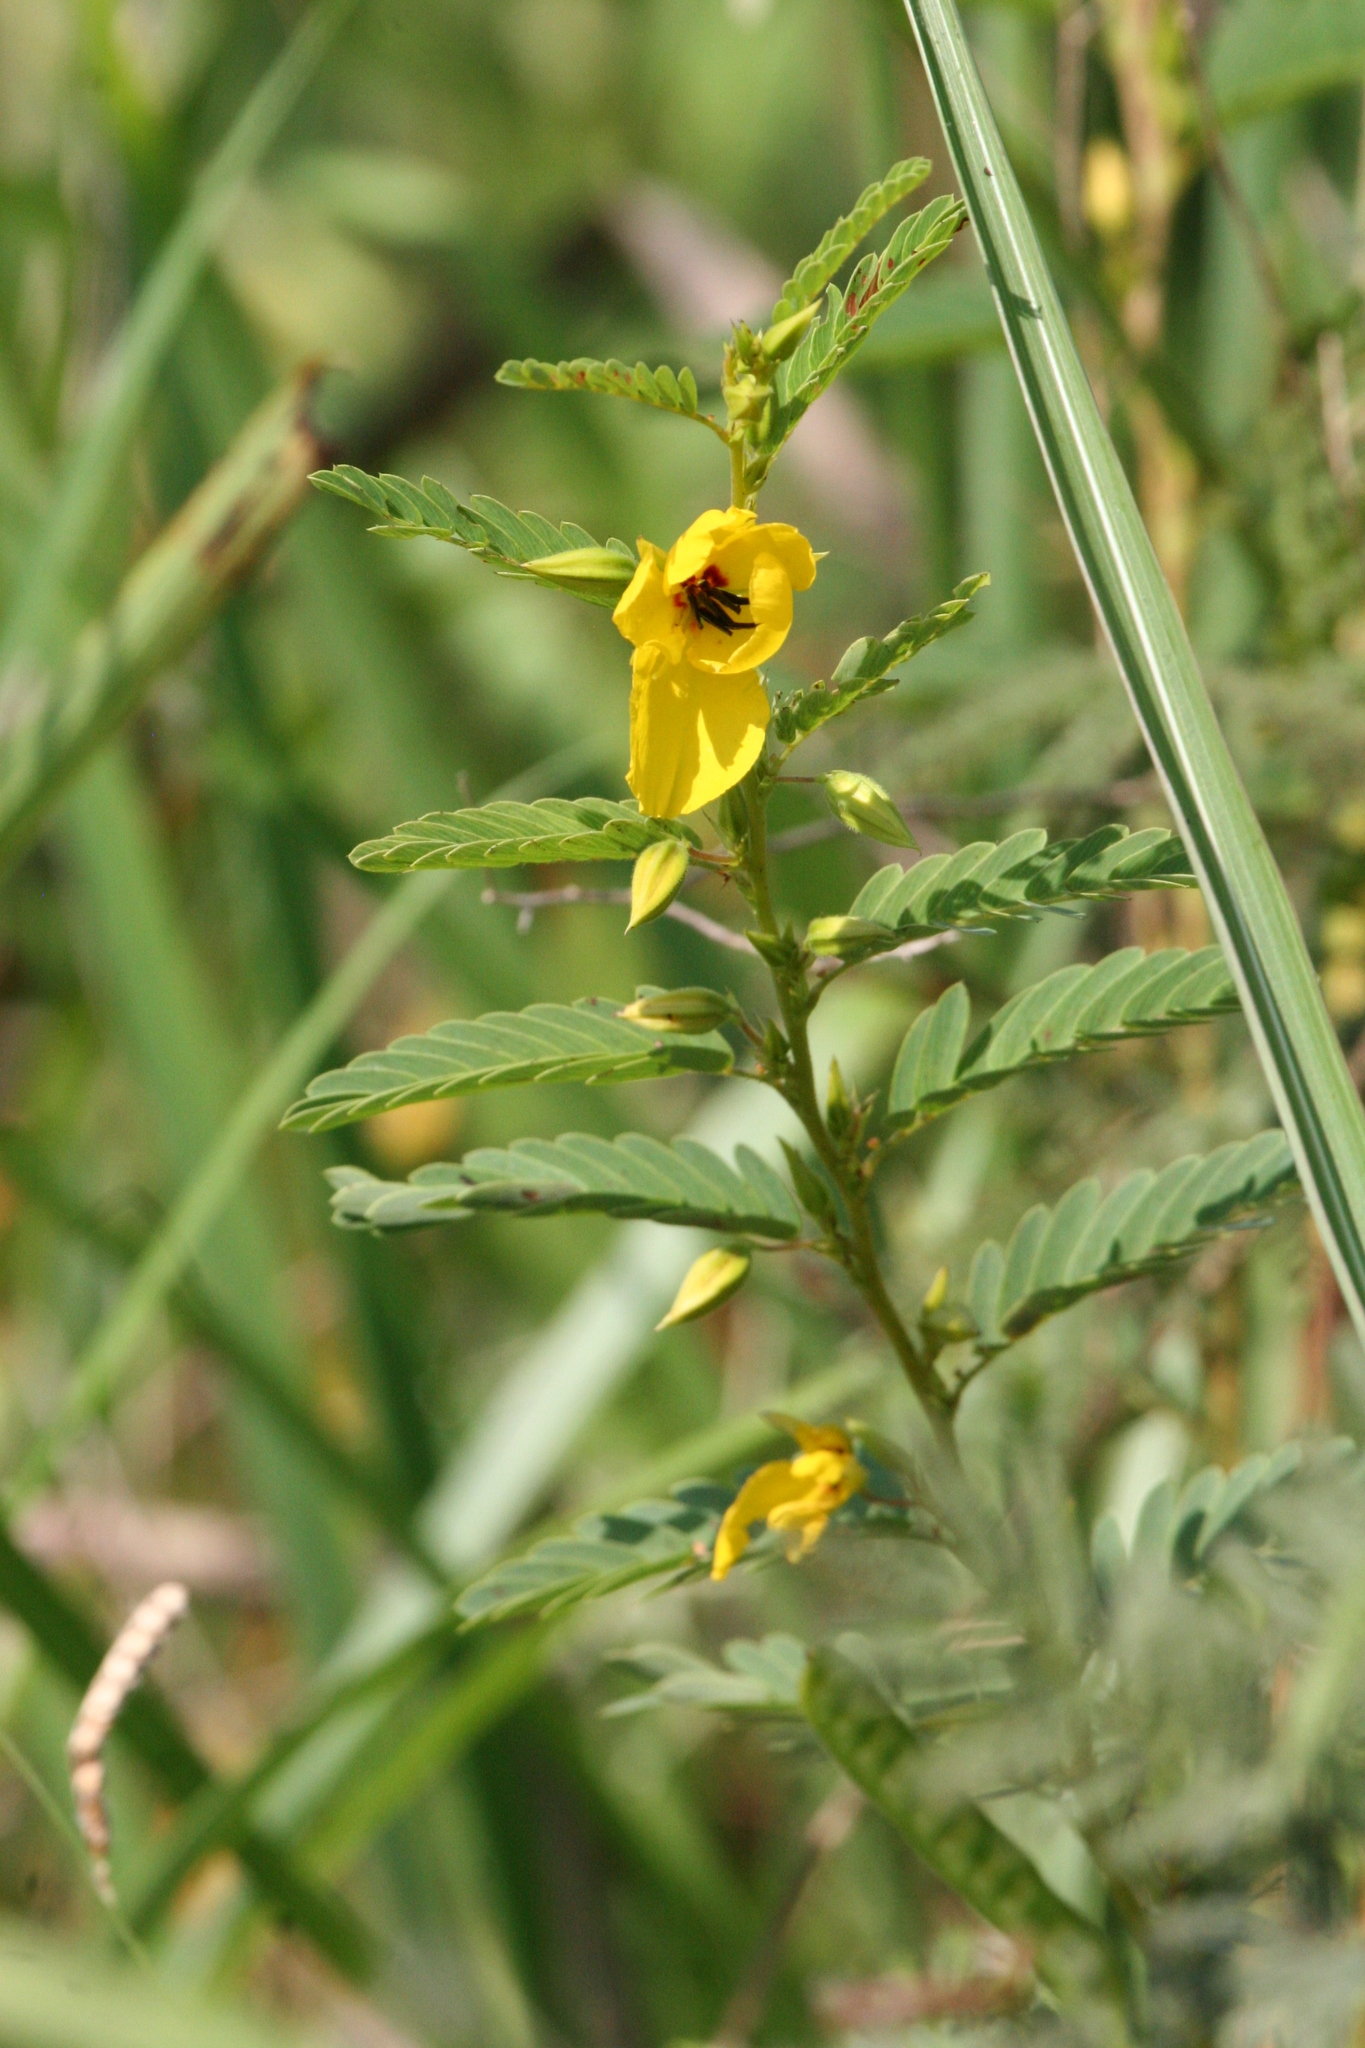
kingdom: Plantae
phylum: Tracheophyta
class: Magnoliopsida
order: Fabales
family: Fabaceae
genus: Chamaecrista
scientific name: Chamaecrista fasciculata
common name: Golden cassia
